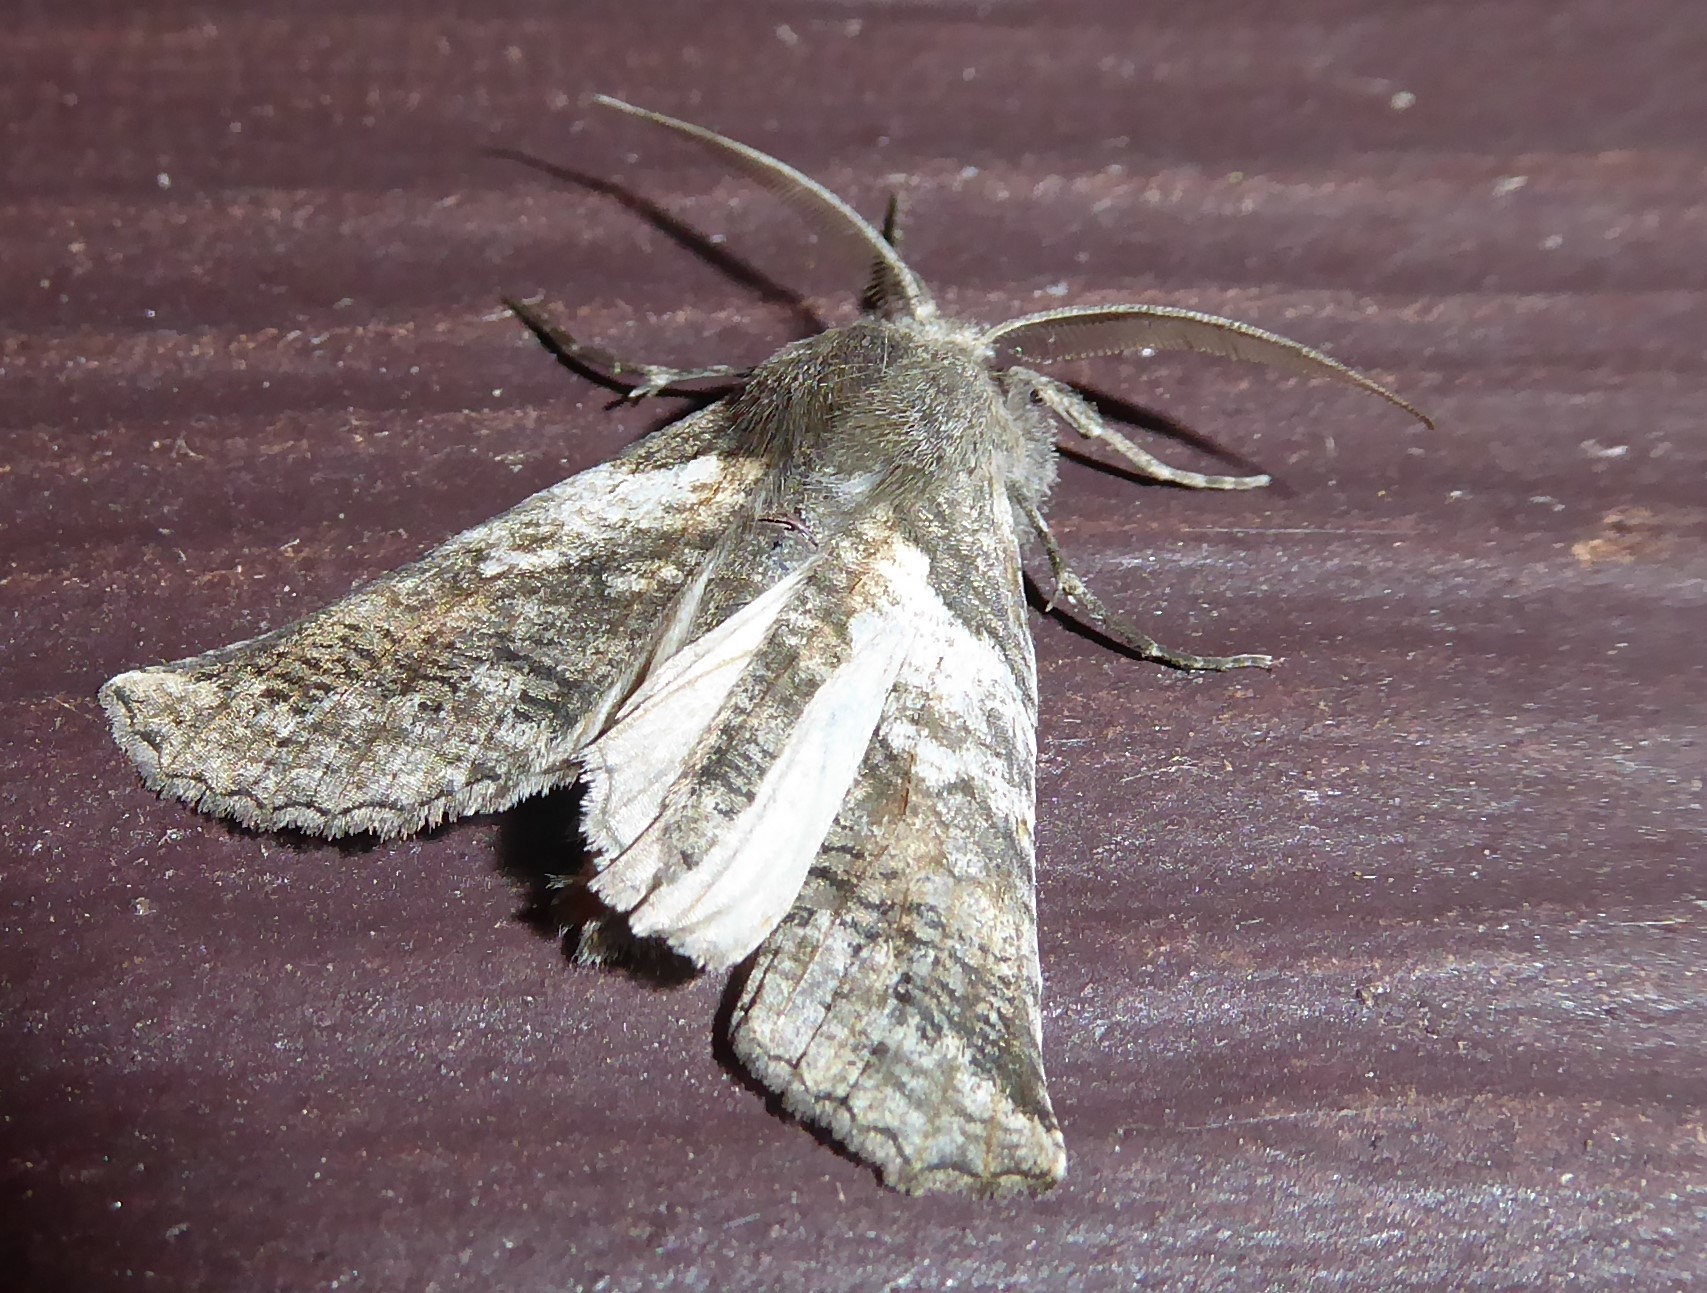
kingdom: Animalia
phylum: Arthropoda
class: Insecta
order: Lepidoptera
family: Geometridae
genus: Declana
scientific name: Declana
